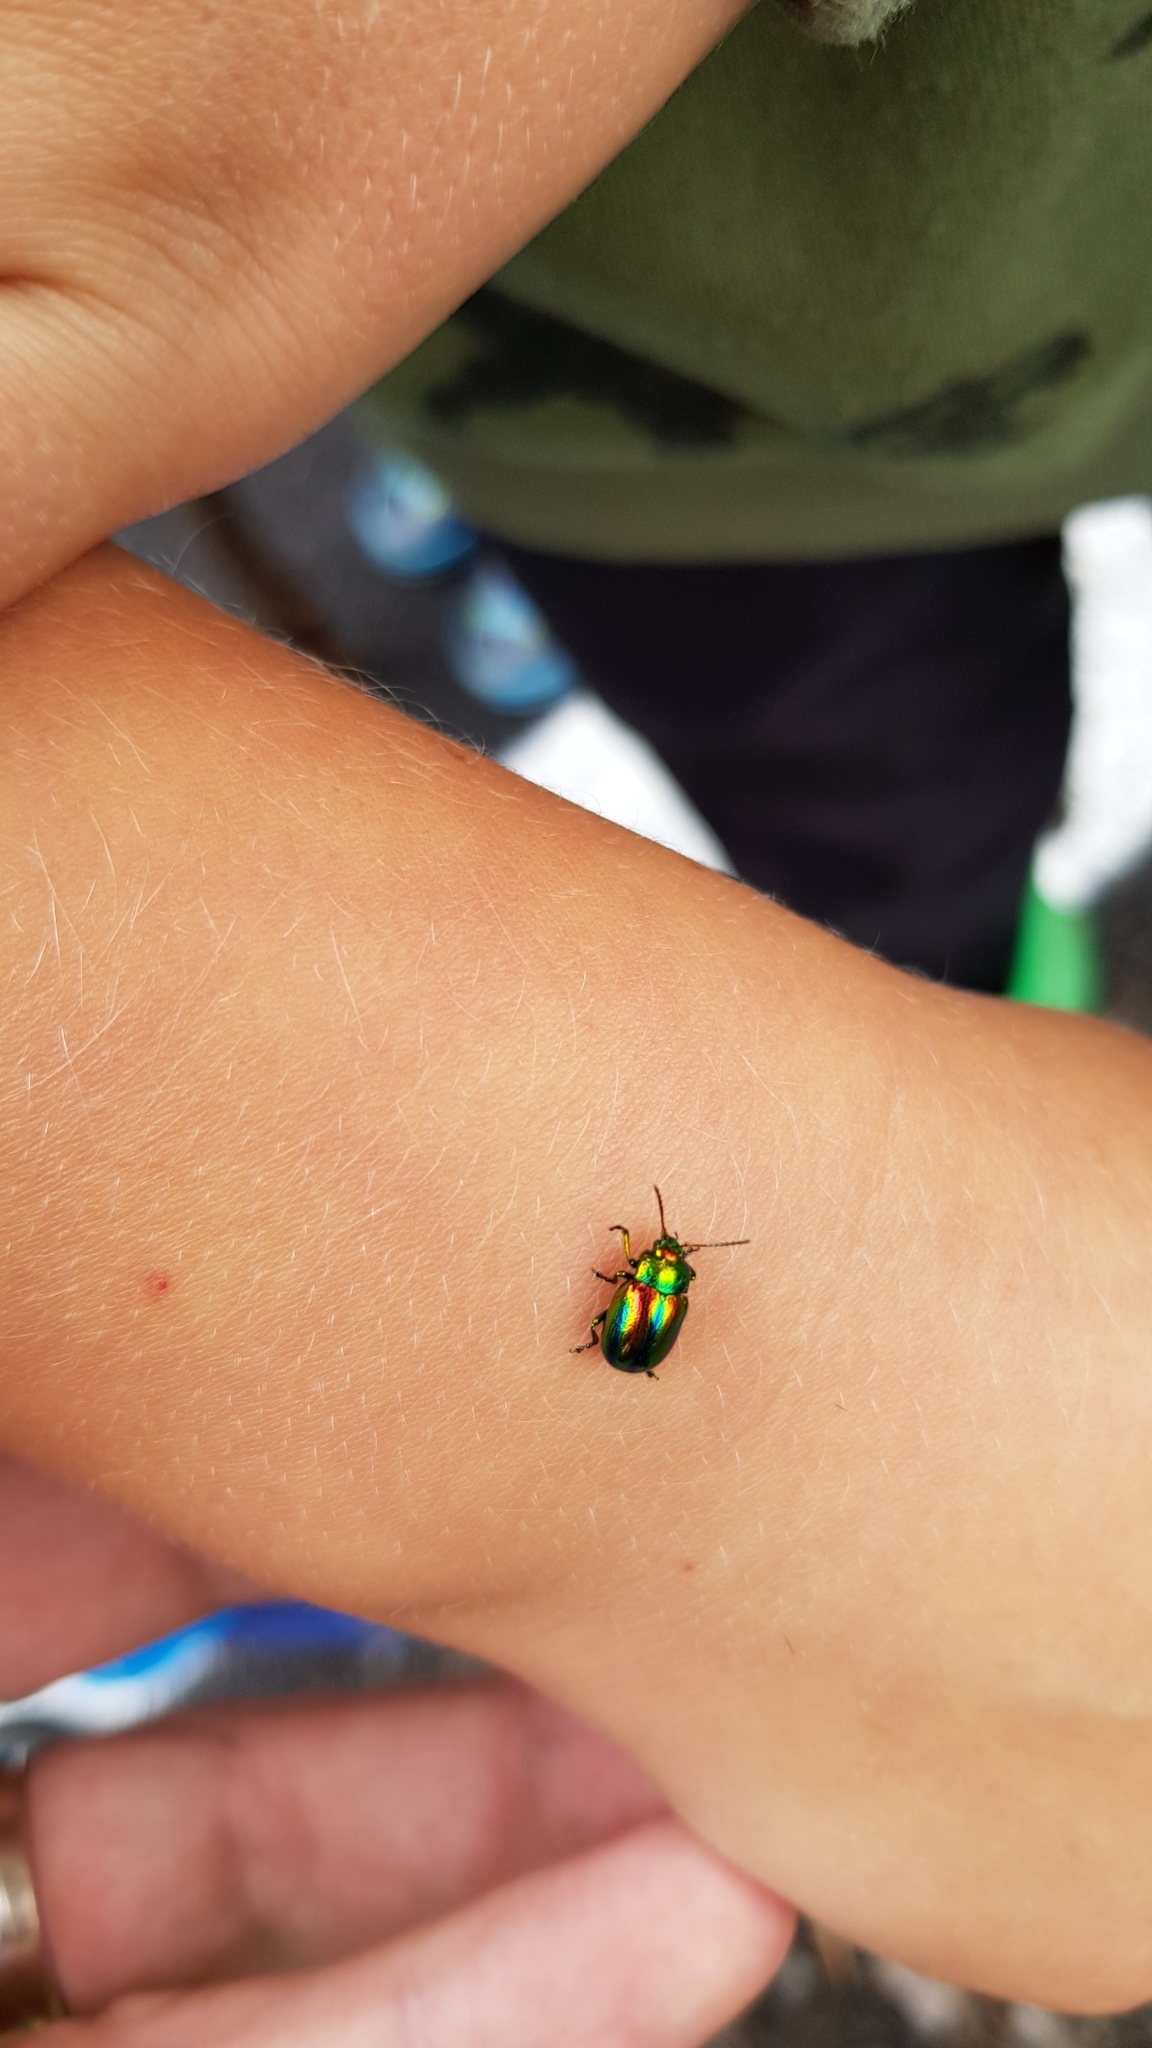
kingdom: Animalia
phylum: Arthropoda
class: Insecta
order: Coleoptera
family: Chrysomelidae
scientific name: Chrysomelidae
